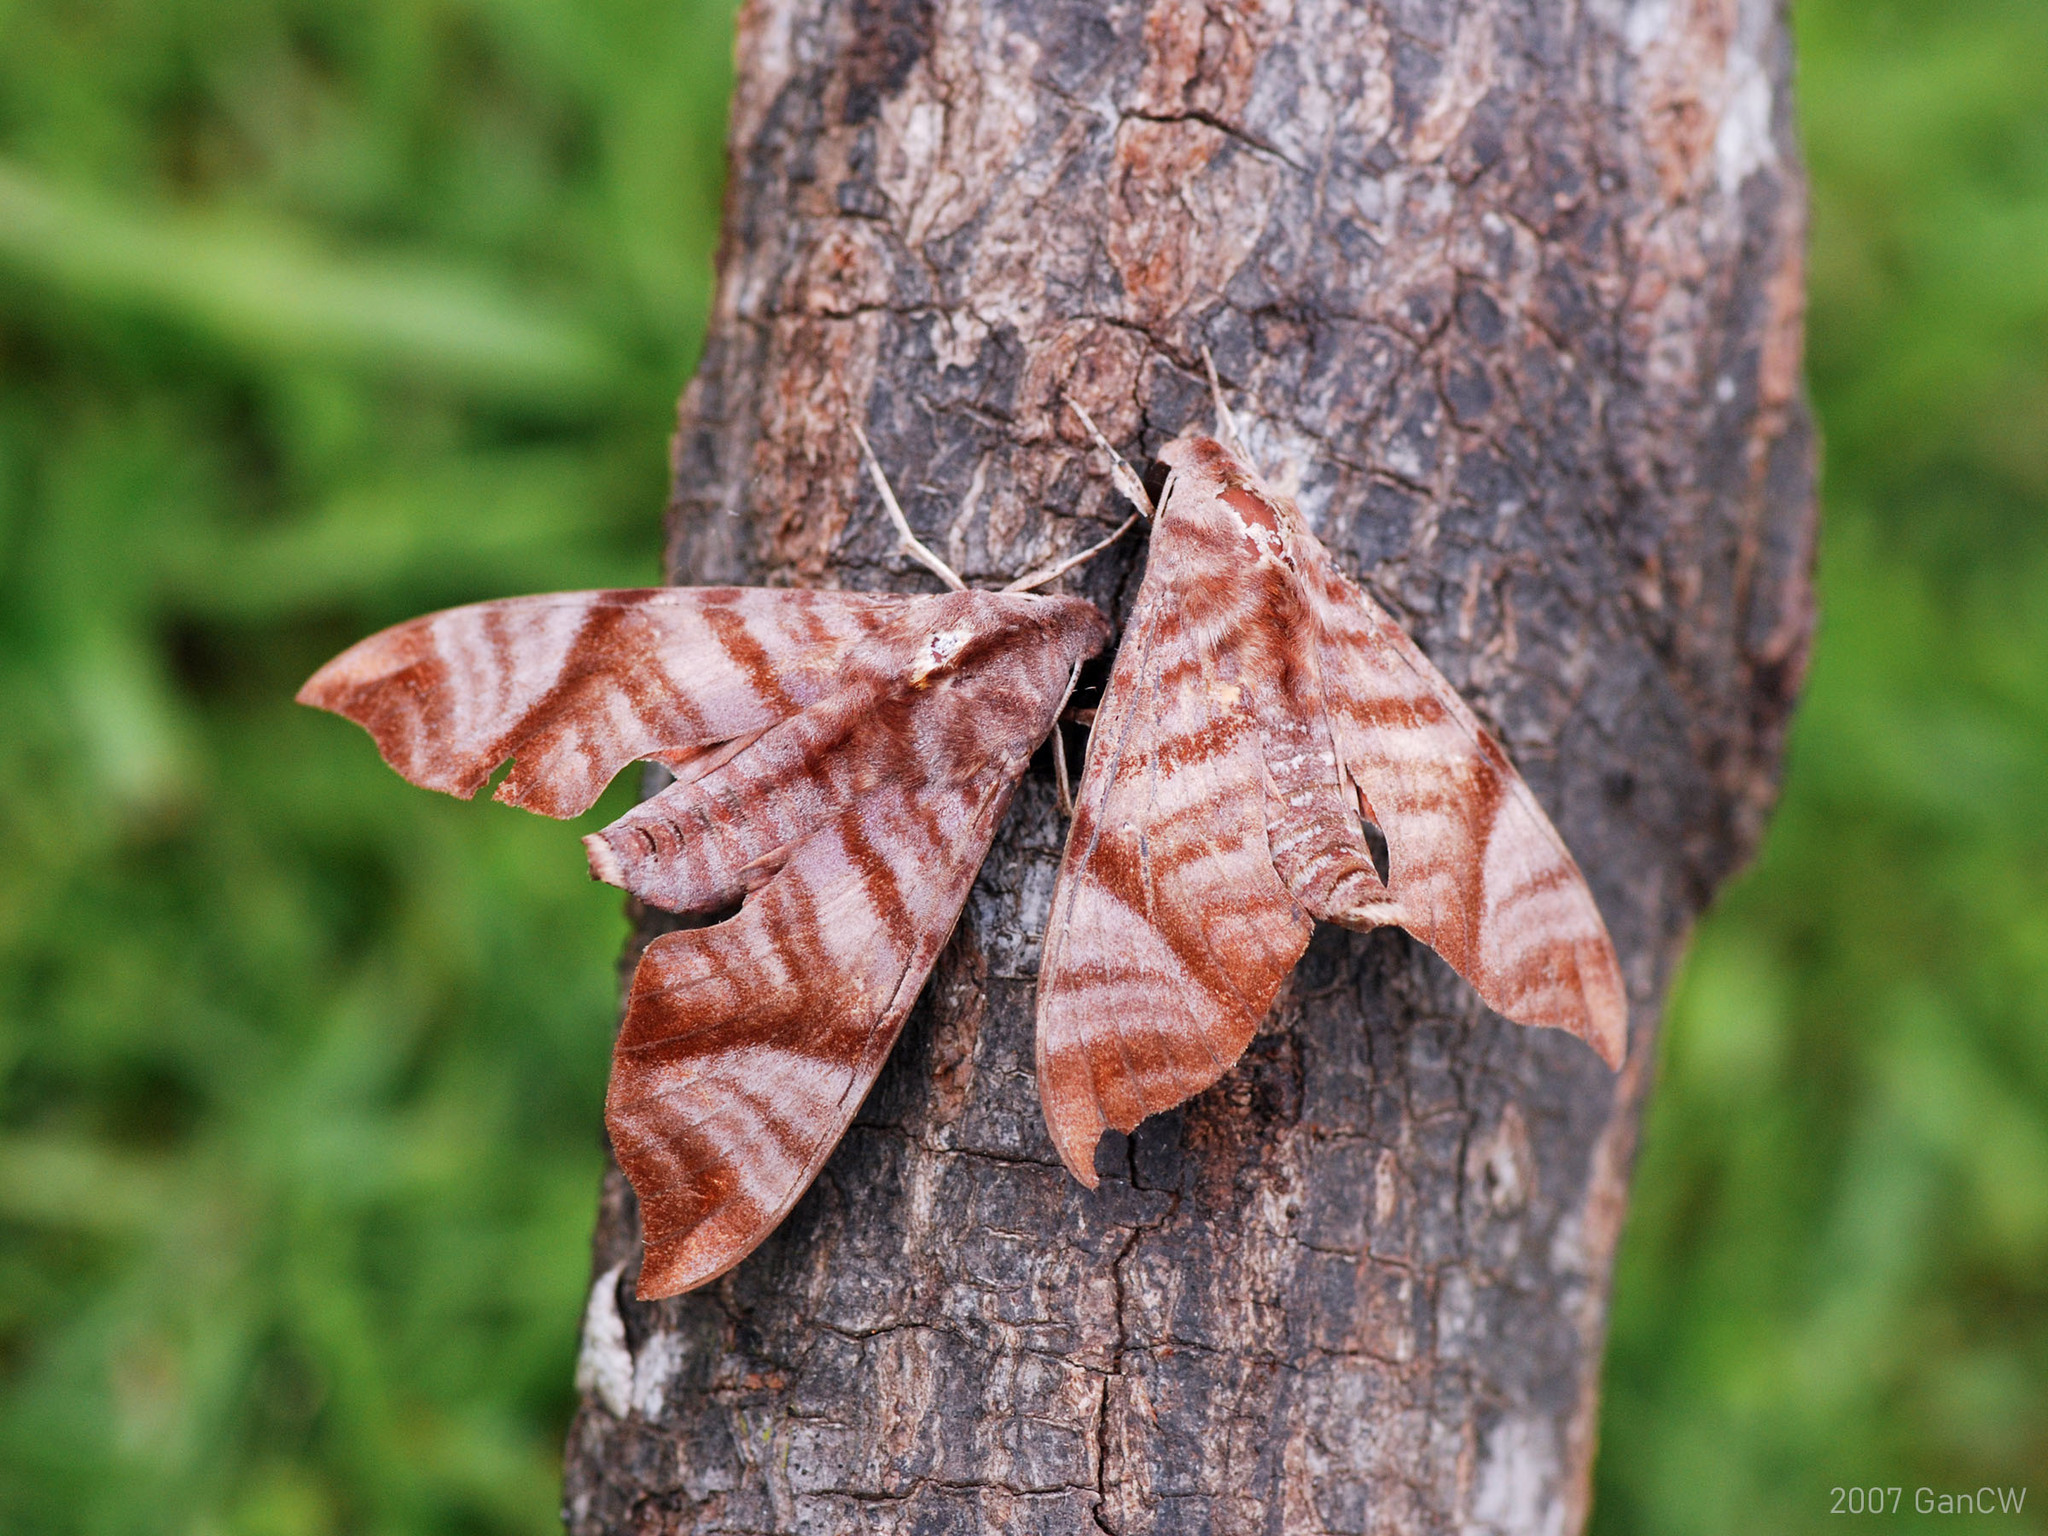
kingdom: Animalia
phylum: Arthropoda
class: Insecta
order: Lepidoptera
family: Sphingidae
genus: Dahira
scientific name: Dahira falcata
